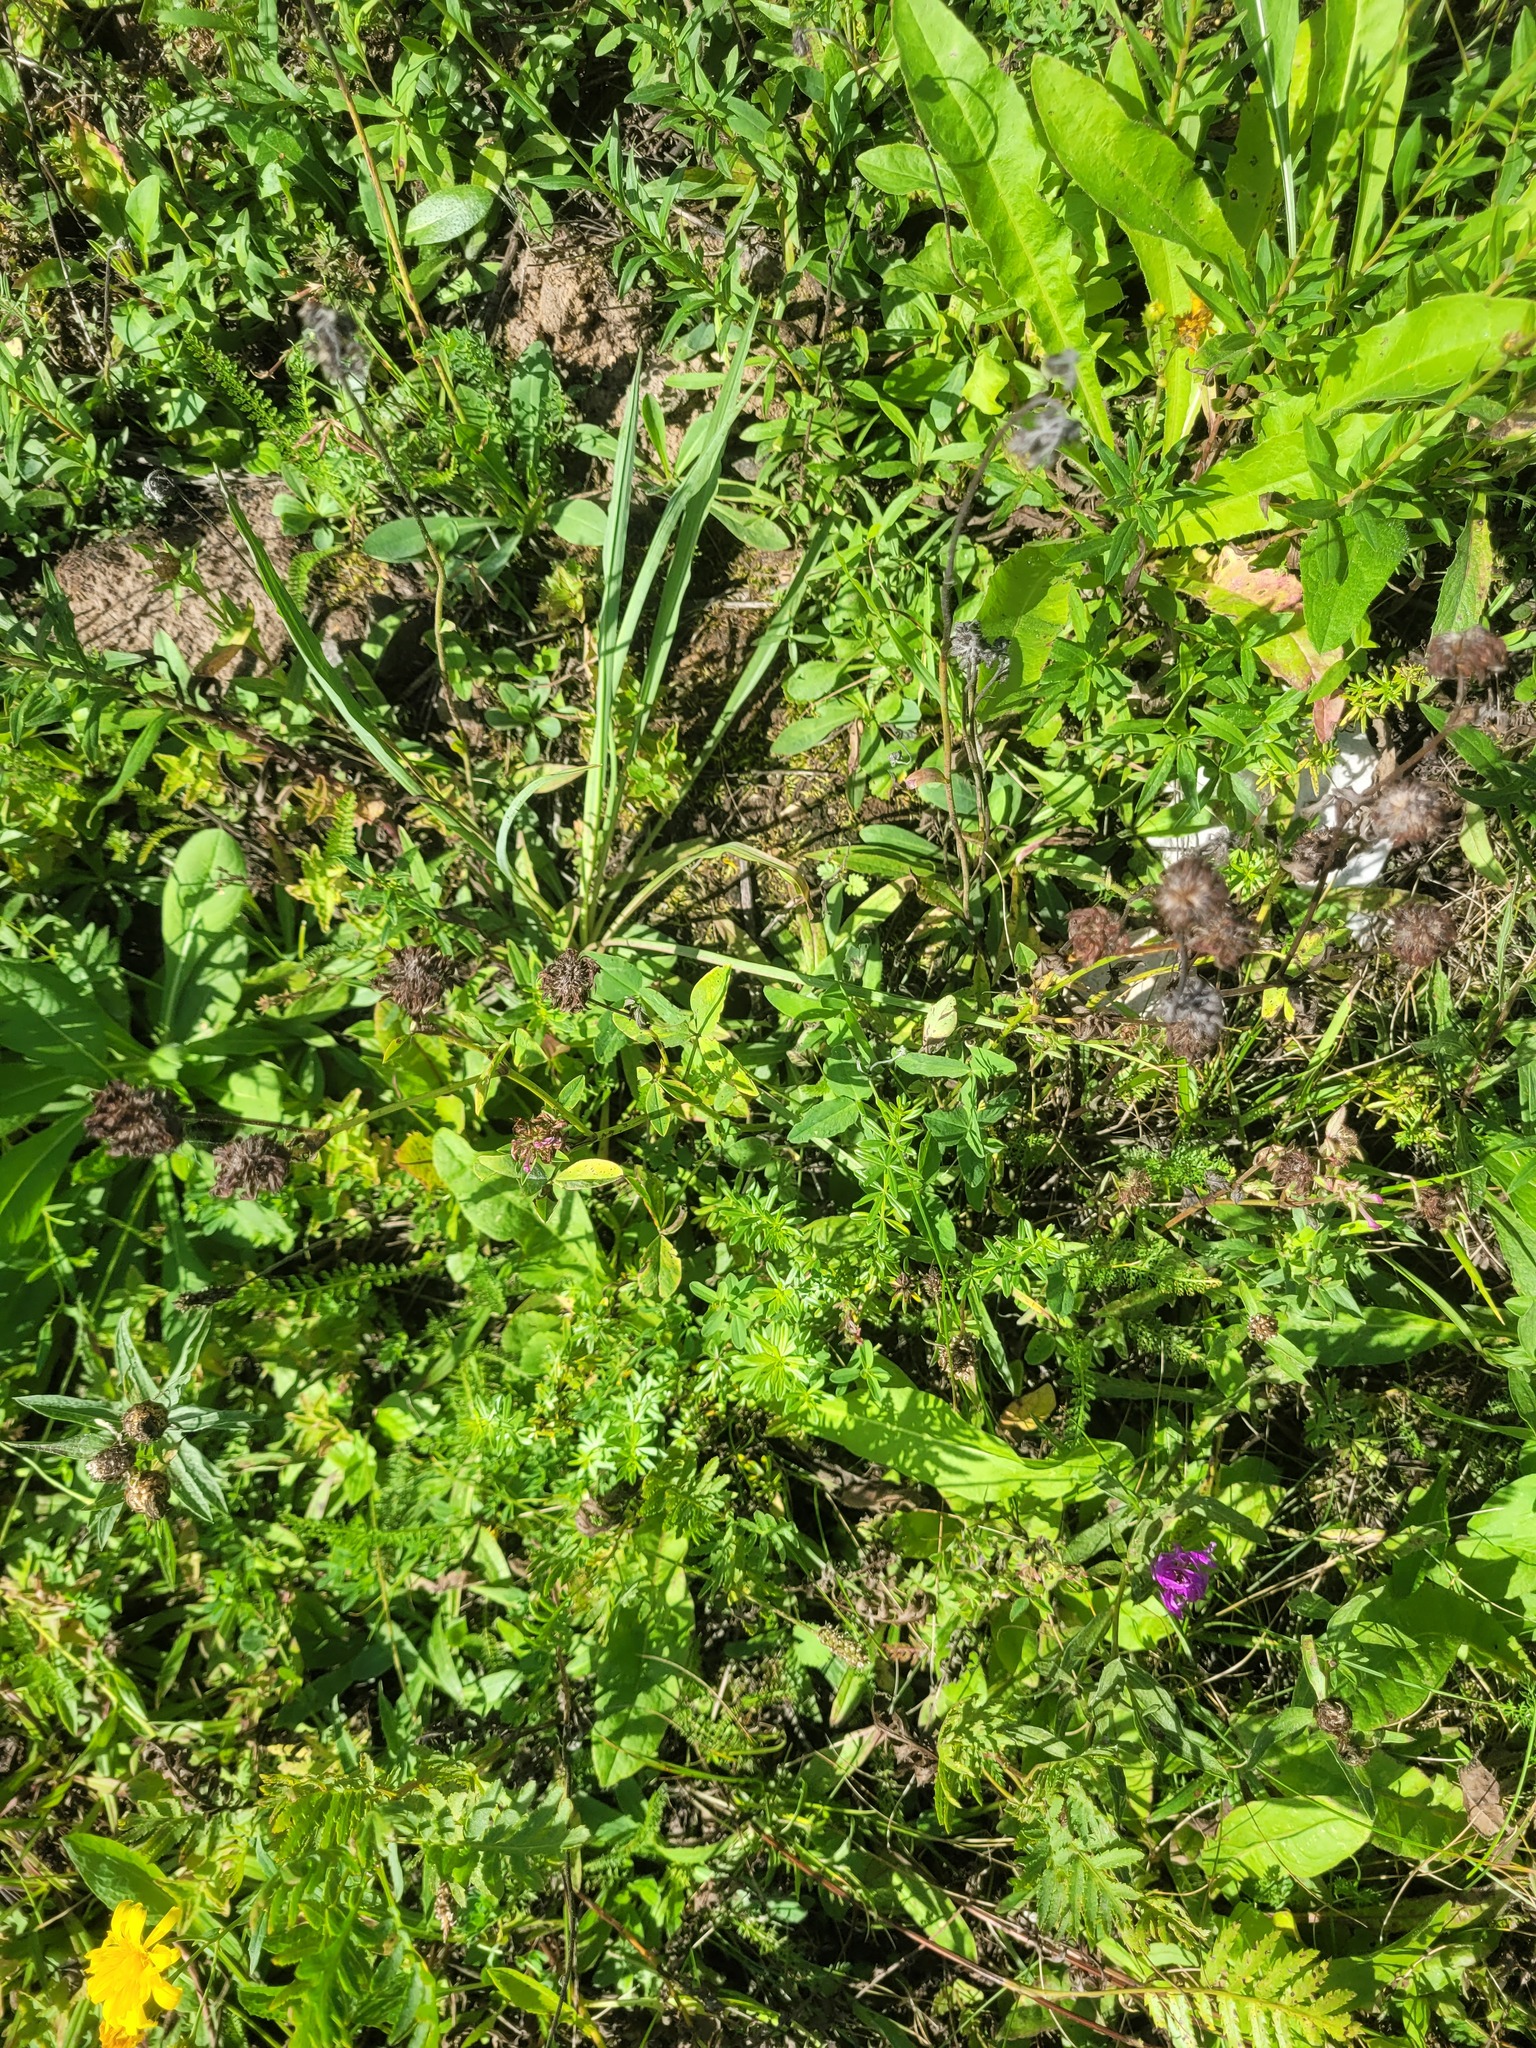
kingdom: Plantae
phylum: Tracheophyta
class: Magnoliopsida
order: Fabales
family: Fabaceae
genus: Trifolium
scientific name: Trifolium pratense
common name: Red clover
